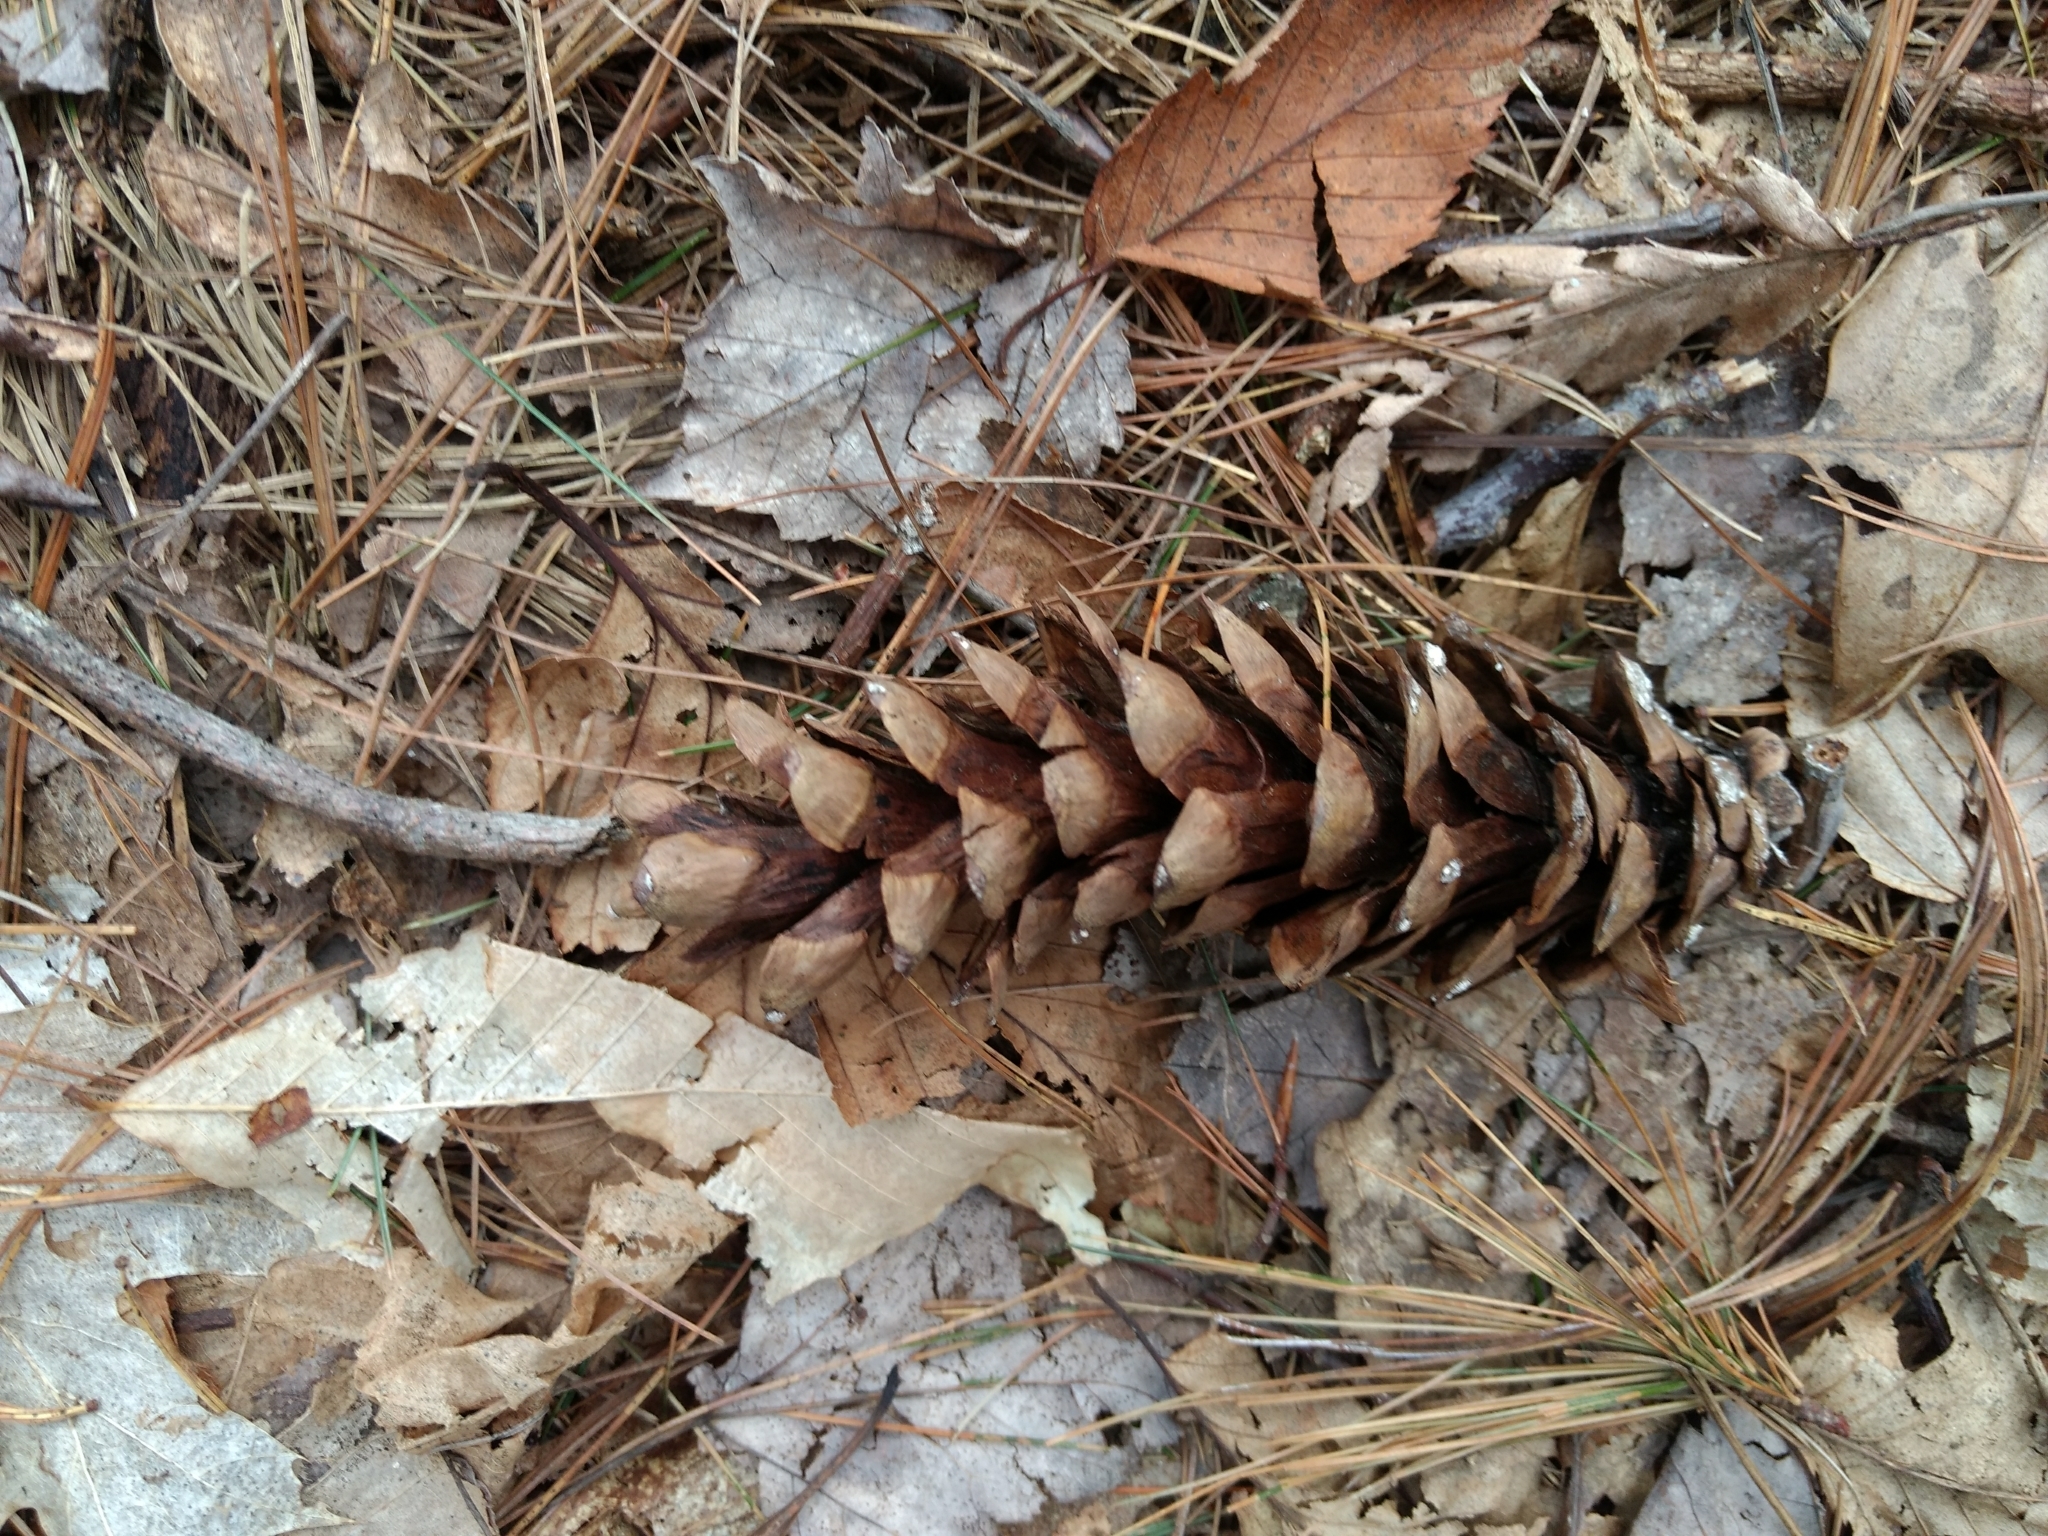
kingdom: Plantae
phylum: Tracheophyta
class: Pinopsida
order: Pinales
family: Pinaceae
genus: Pinus
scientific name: Pinus strobus
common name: Weymouth pine
